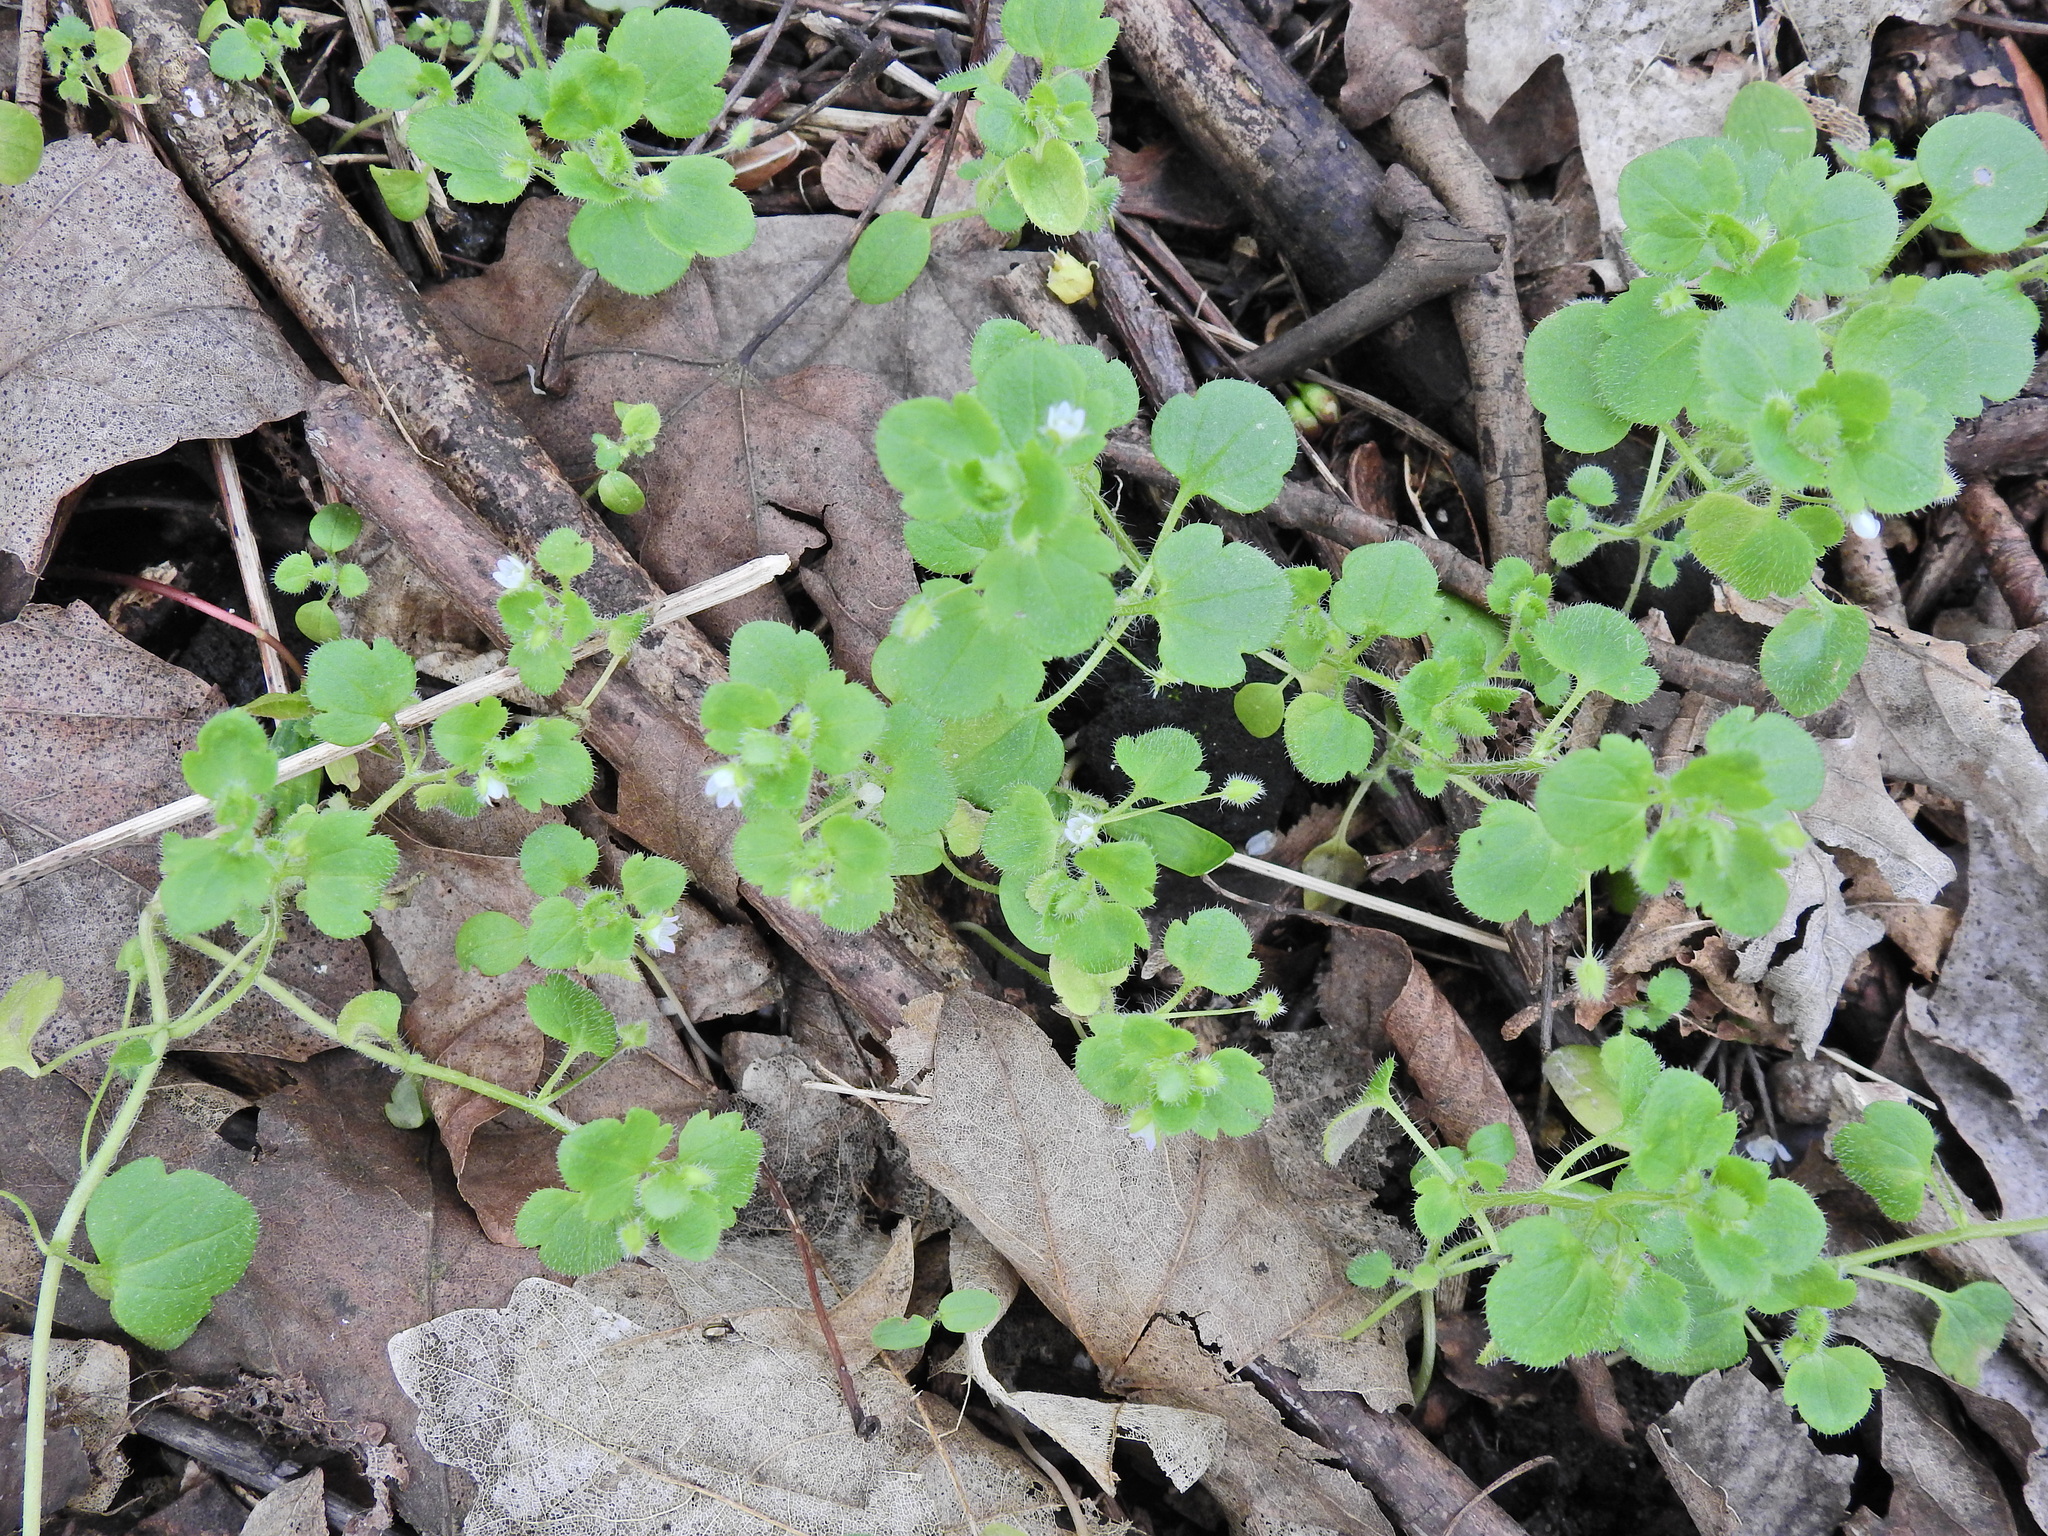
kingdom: Plantae
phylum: Tracheophyta
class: Magnoliopsida
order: Lamiales
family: Plantaginaceae
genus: Veronica
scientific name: Veronica sublobata
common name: False ivy-leaved speedwell
